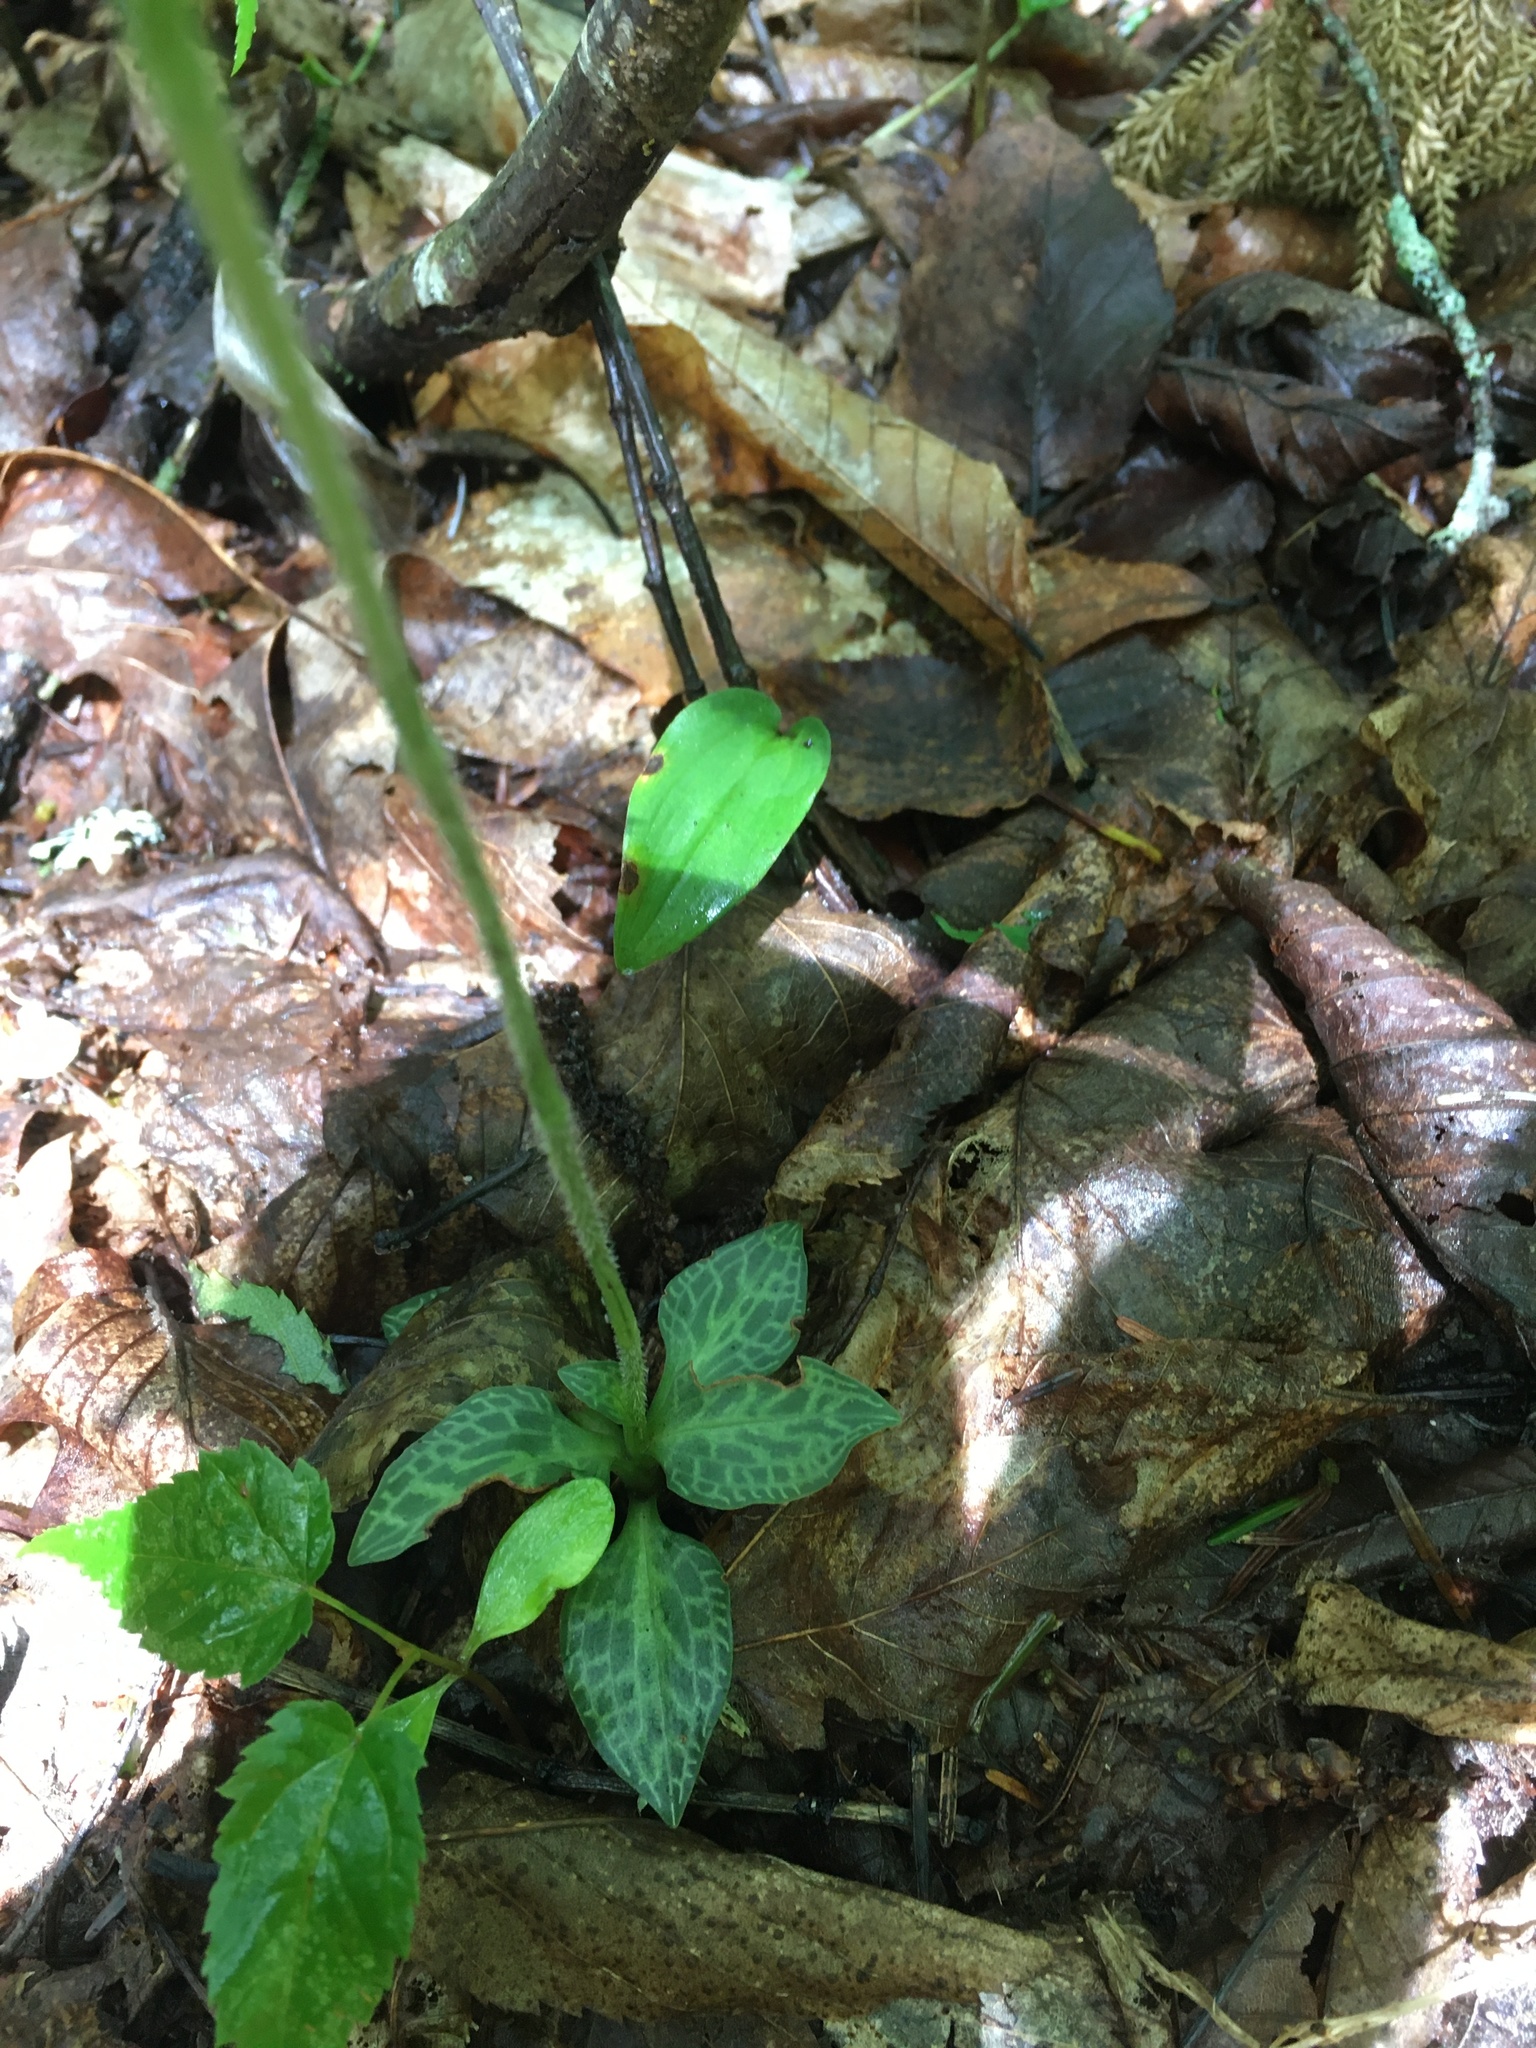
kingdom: Plantae
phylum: Tracheophyta
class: Liliopsida
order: Asparagales
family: Orchidaceae
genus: Goodyera
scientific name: Goodyera tesselata
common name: Checkered rattlesnake-plantain
